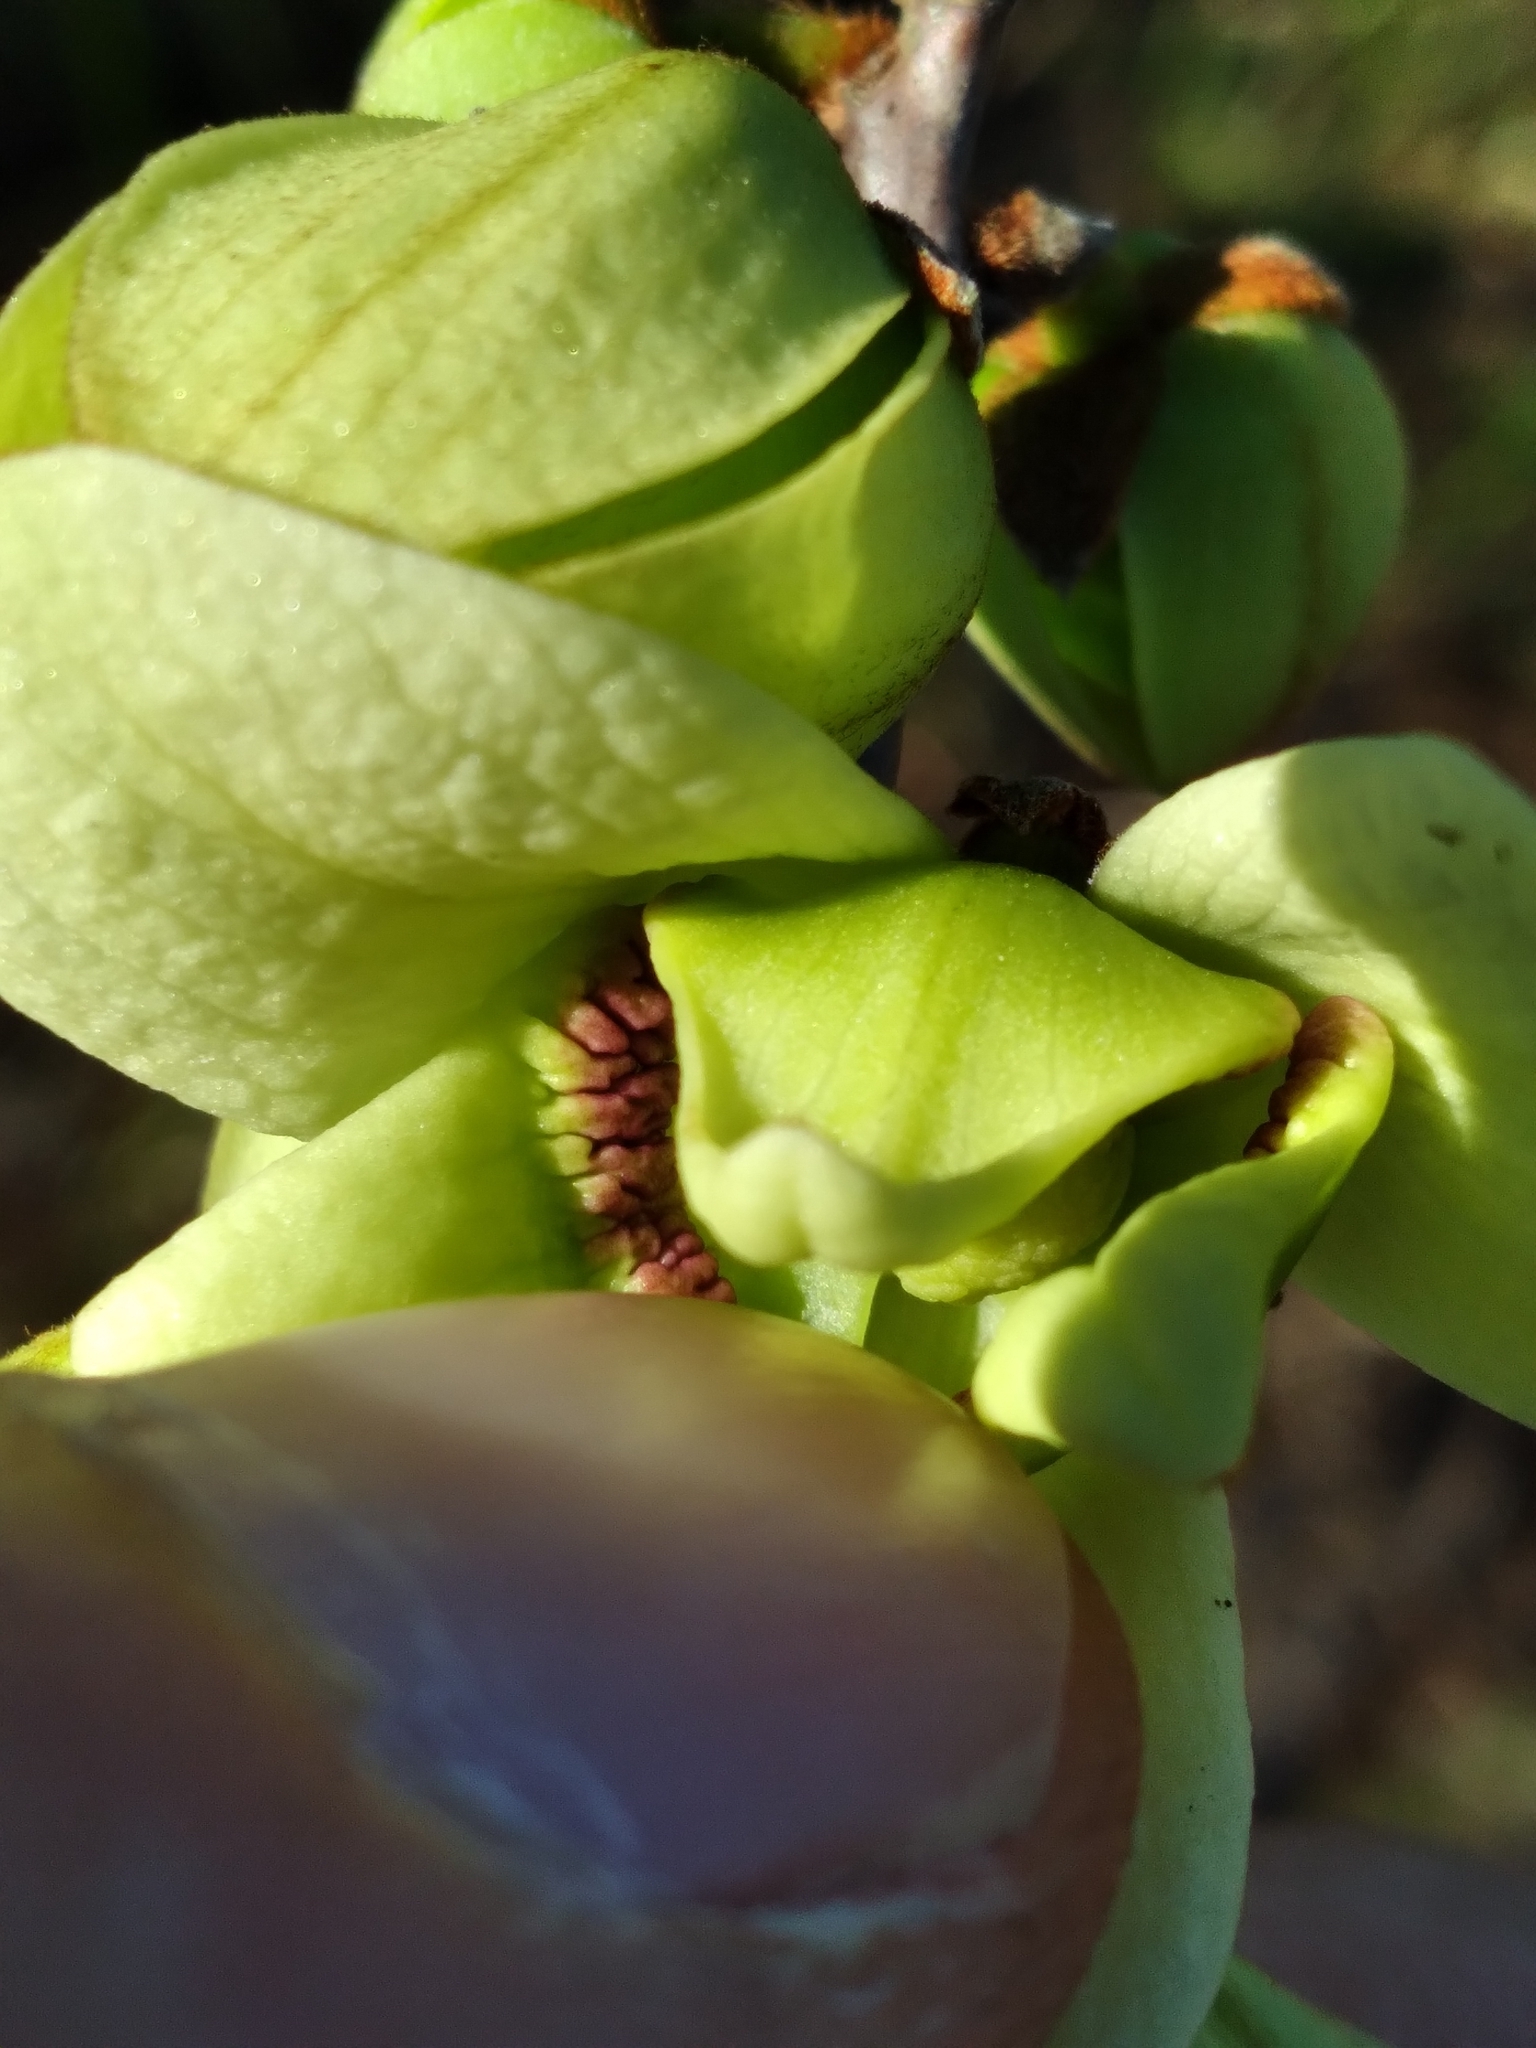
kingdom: Plantae
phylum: Tracheophyta
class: Magnoliopsida
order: Magnoliales
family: Annonaceae
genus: Asimina
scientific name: Asimina reticulata
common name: Flag pawpaw
